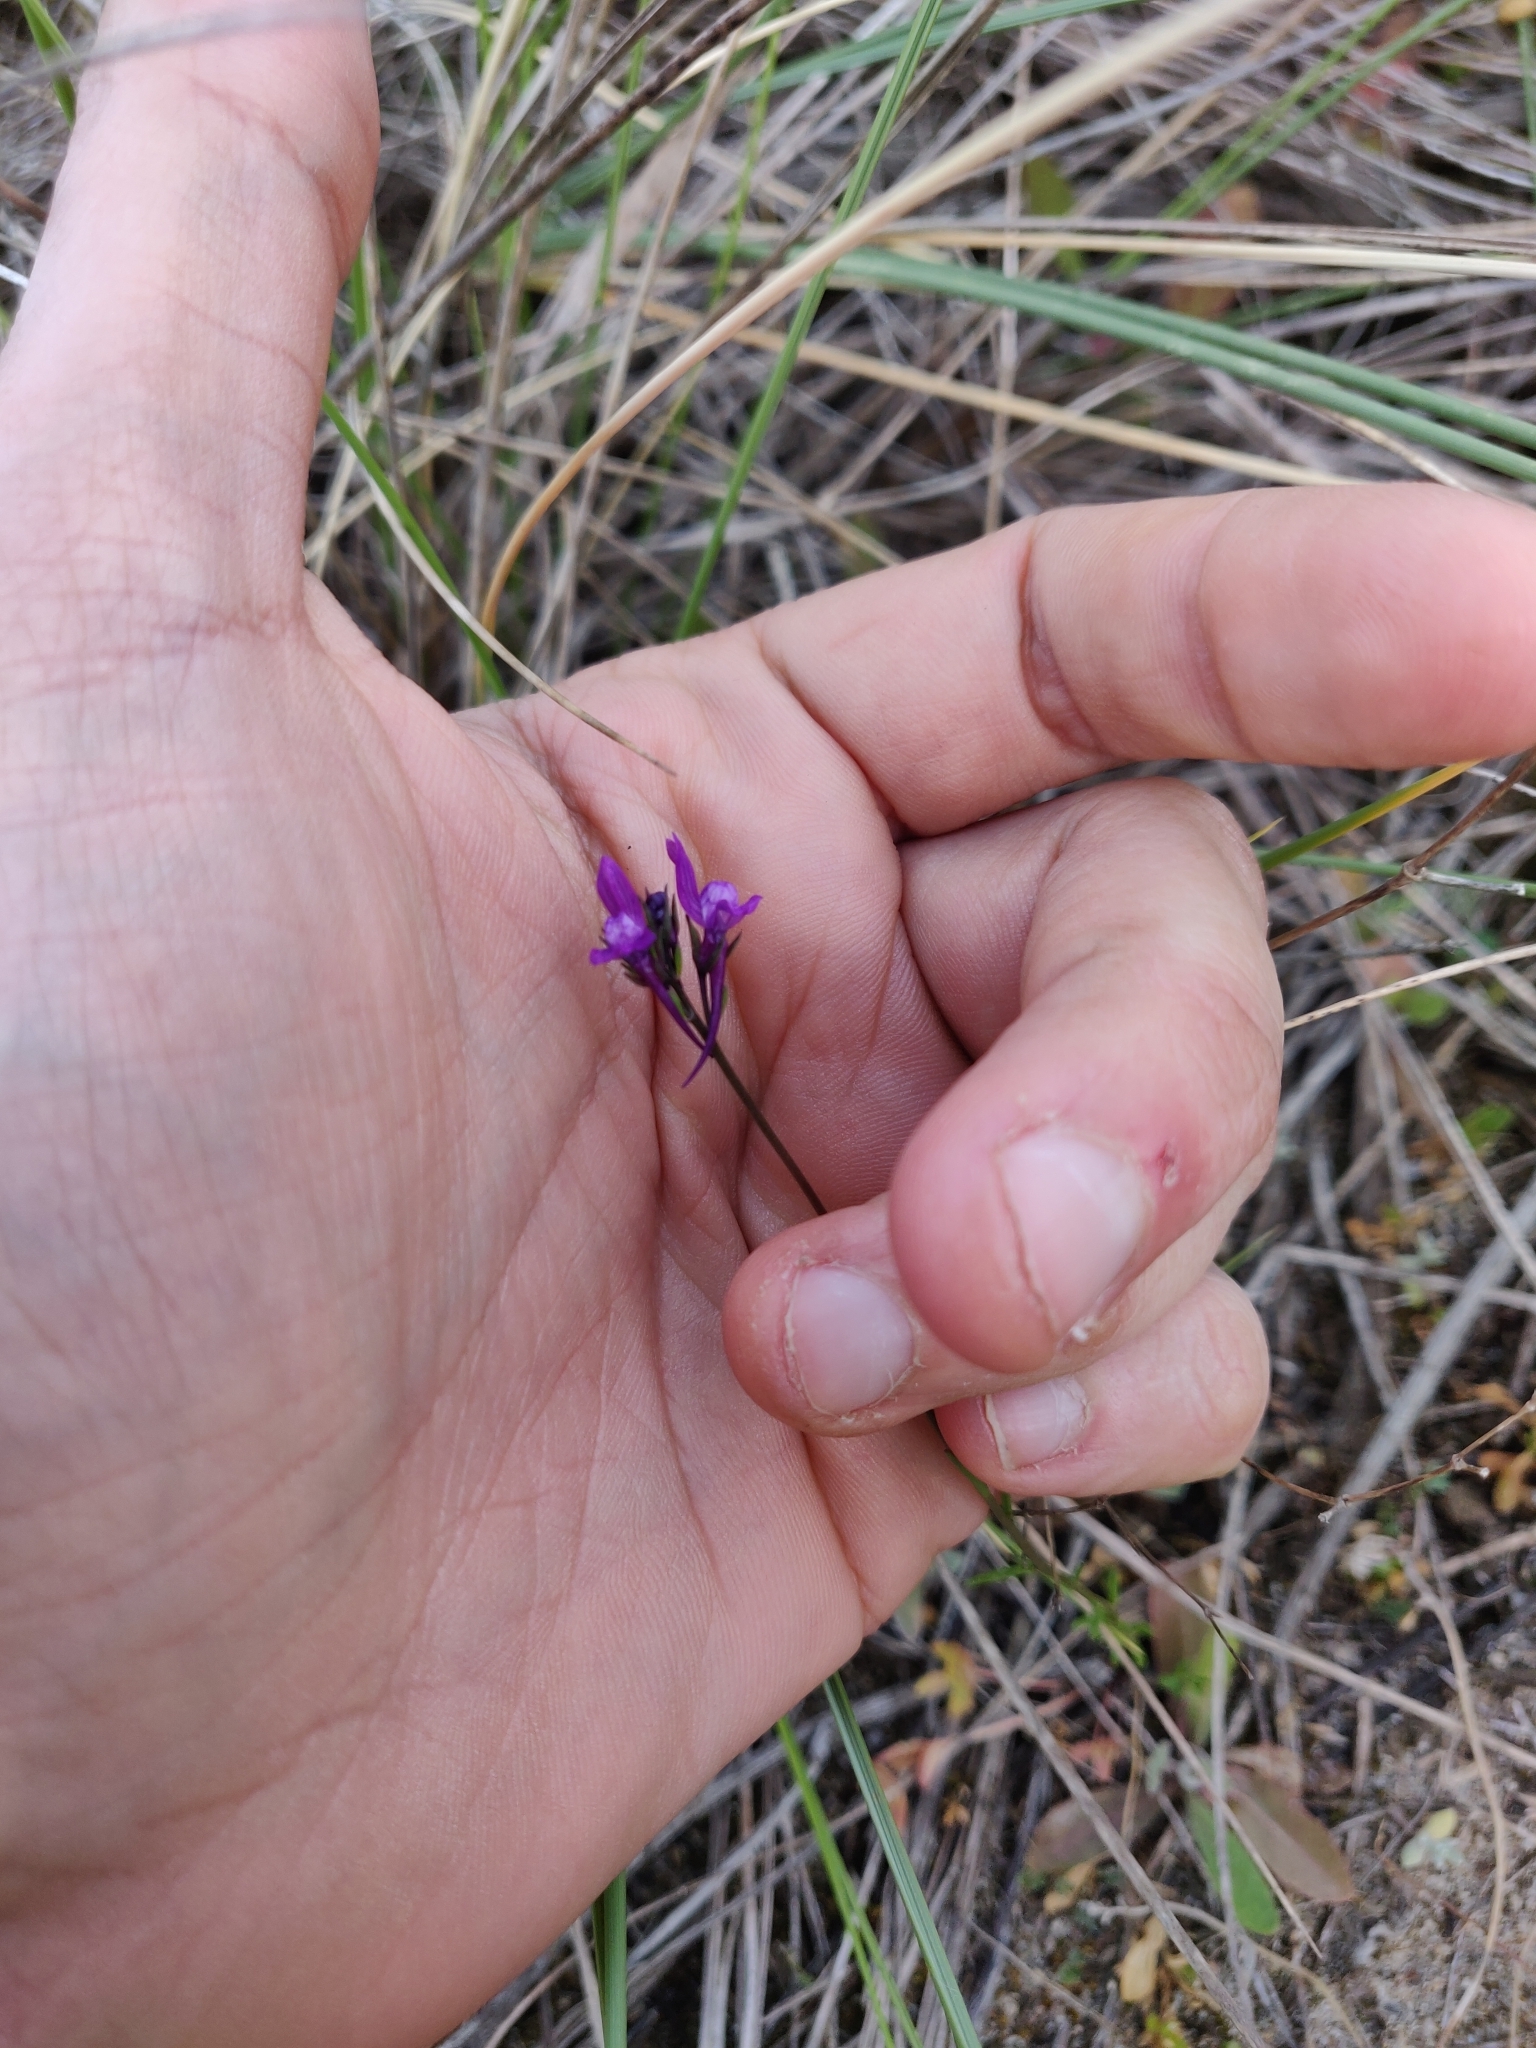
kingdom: Plantae
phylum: Tracheophyta
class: Magnoliopsida
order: Lamiales
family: Plantaginaceae
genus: Linaria
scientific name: Linaria pelisseriana
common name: Jersey toadflax
